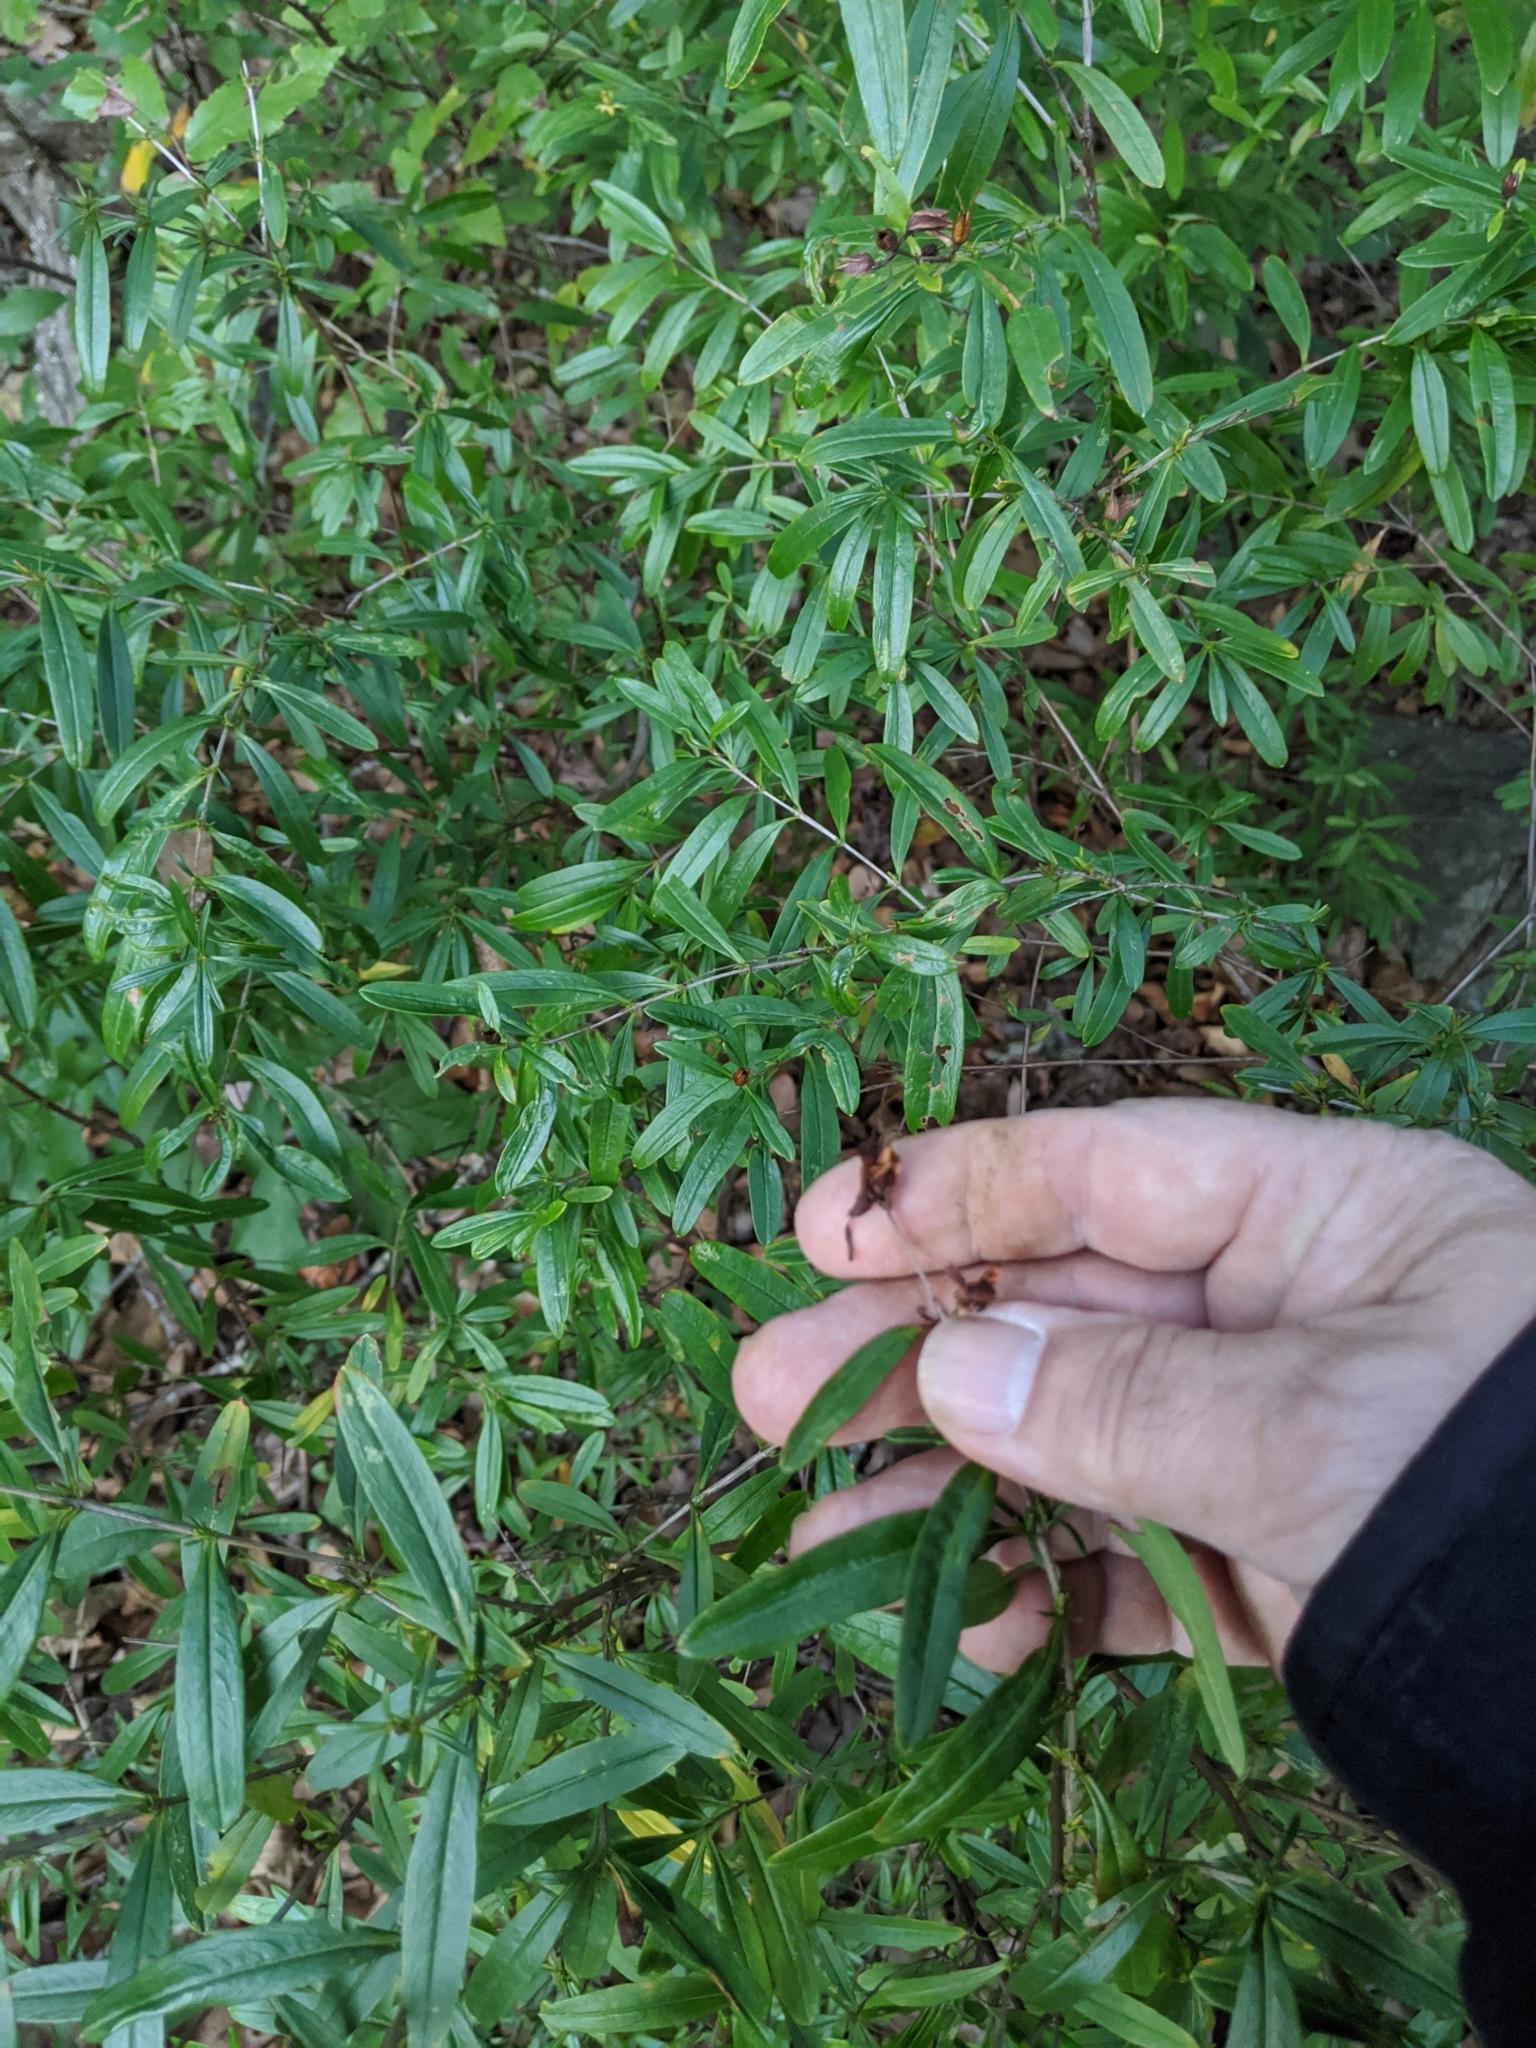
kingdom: Plantae
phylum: Tracheophyta
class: Magnoliopsida
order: Malpighiales
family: Hypericaceae
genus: Hypericum
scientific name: Hypericum prolificum
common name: Shrubby st. john's-wort
